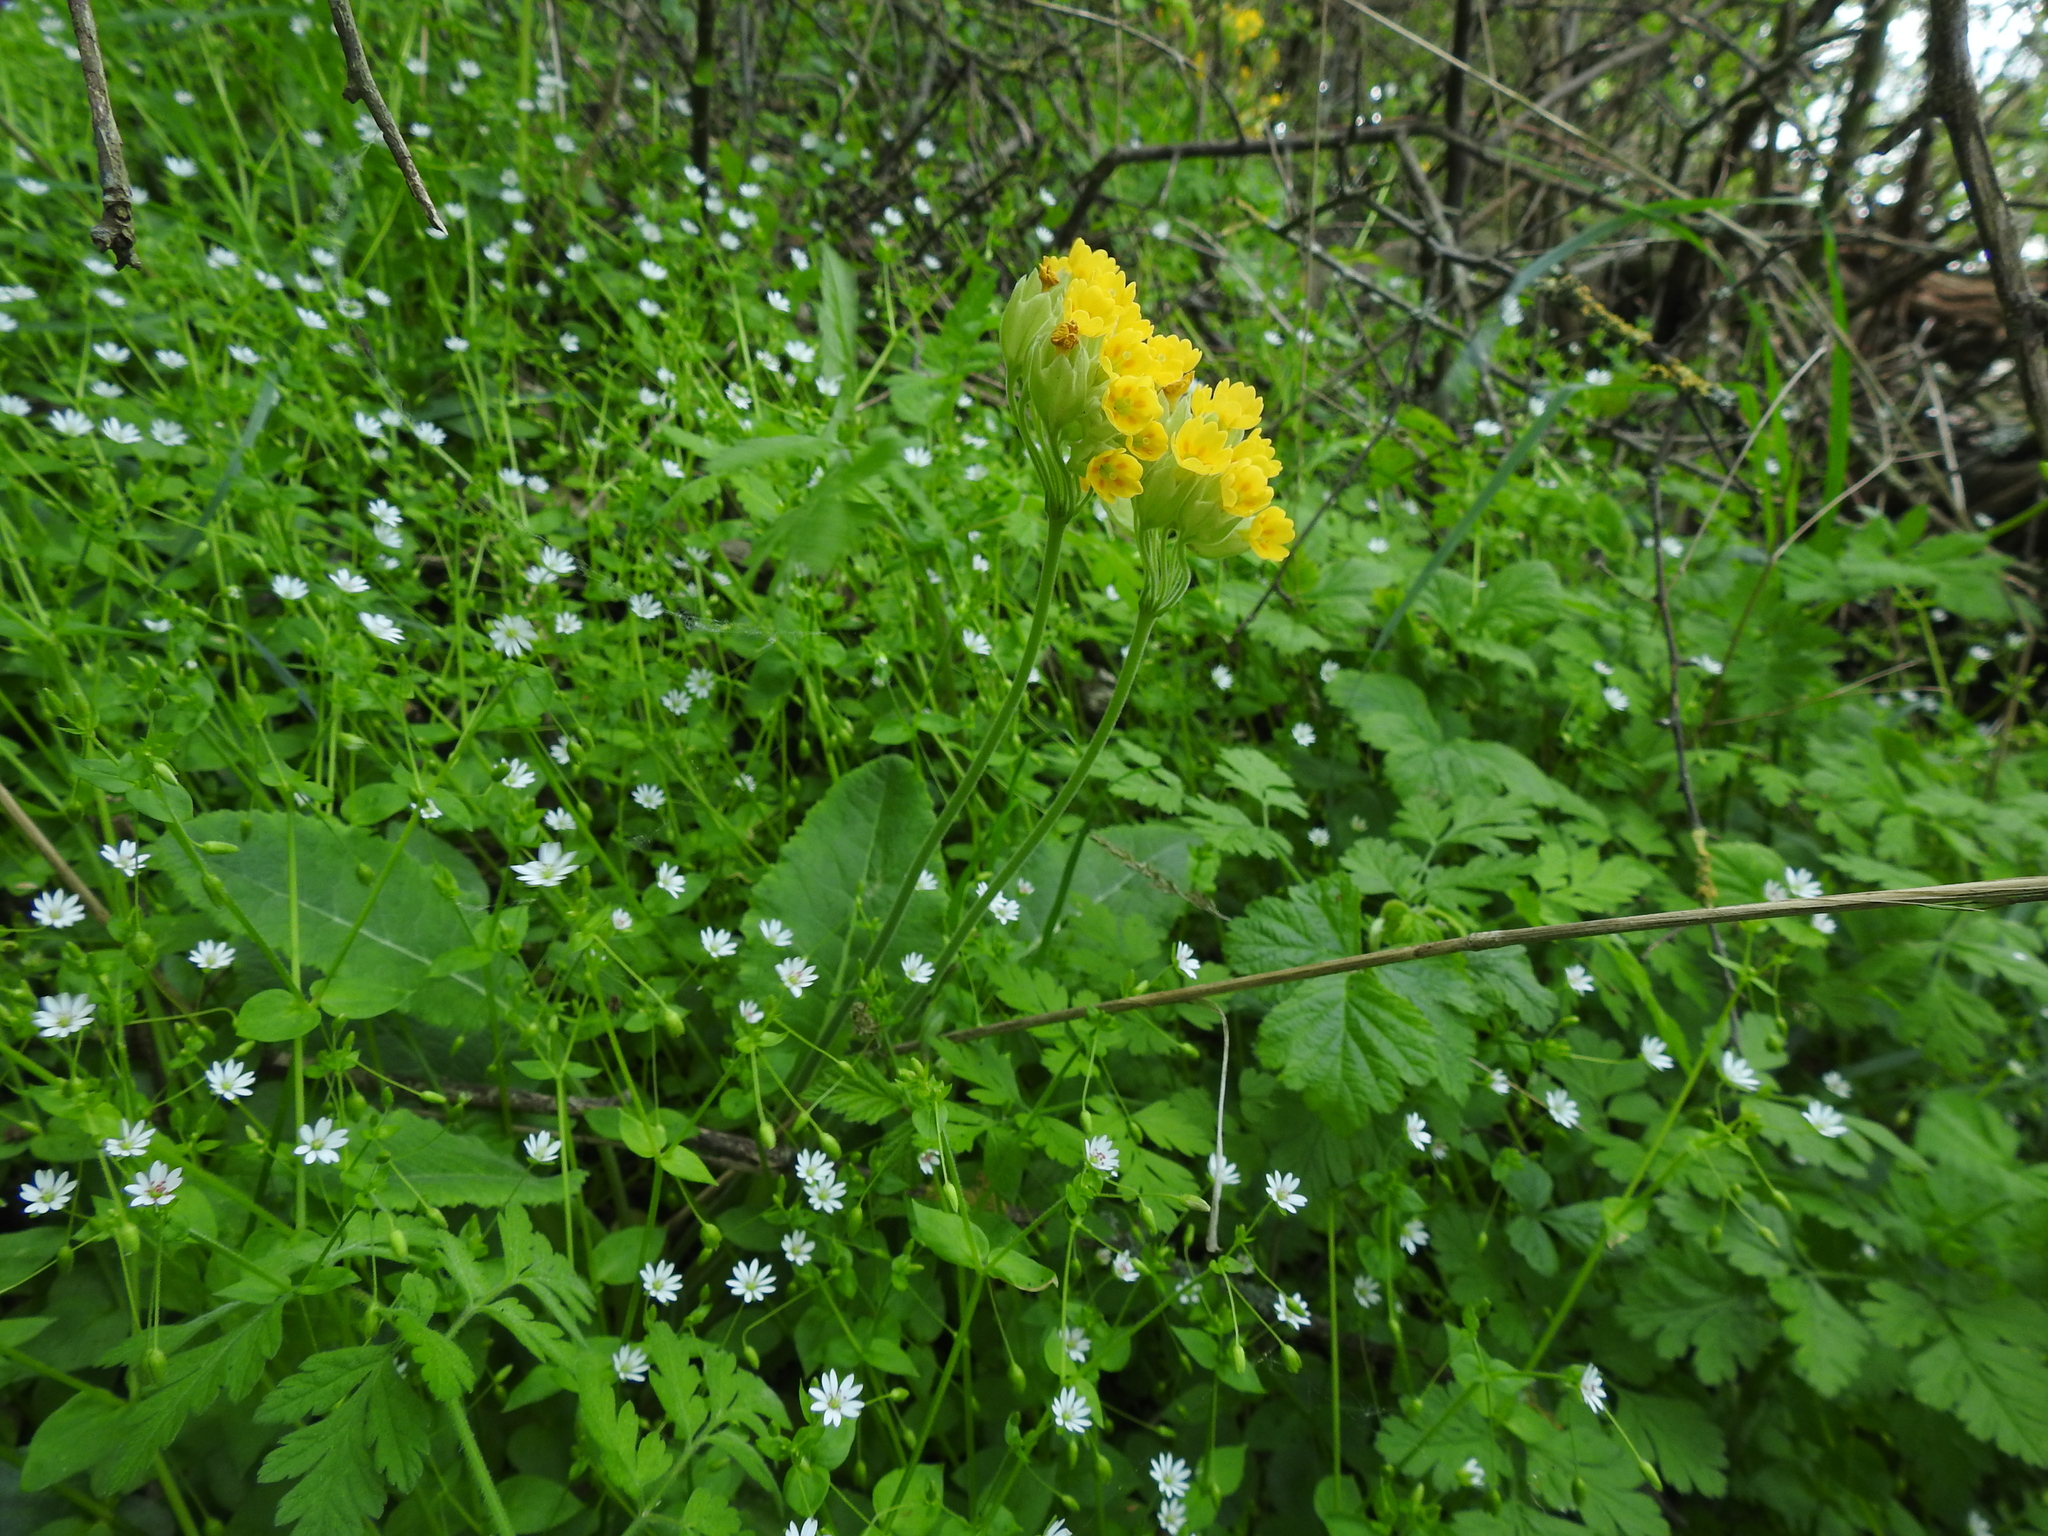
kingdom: Plantae
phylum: Tracheophyta
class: Magnoliopsida
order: Ericales
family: Primulaceae
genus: Primula
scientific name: Primula veris
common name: Cowslip
